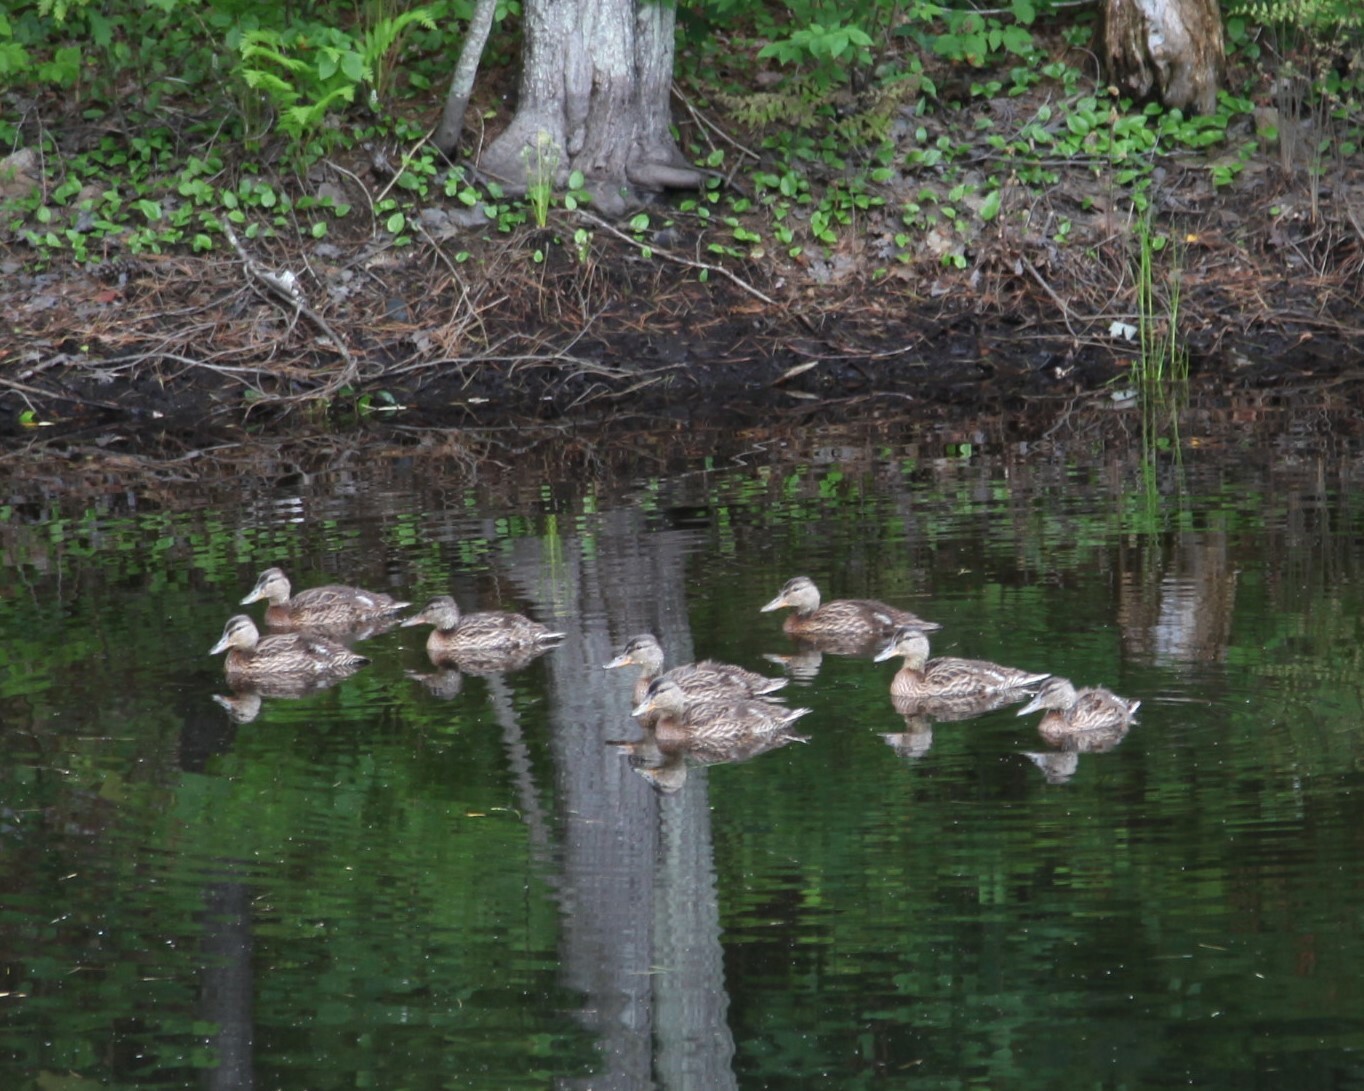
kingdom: Animalia
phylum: Chordata
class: Aves
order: Anseriformes
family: Anatidae
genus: Anas
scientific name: Anas platyrhynchos
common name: Mallard
